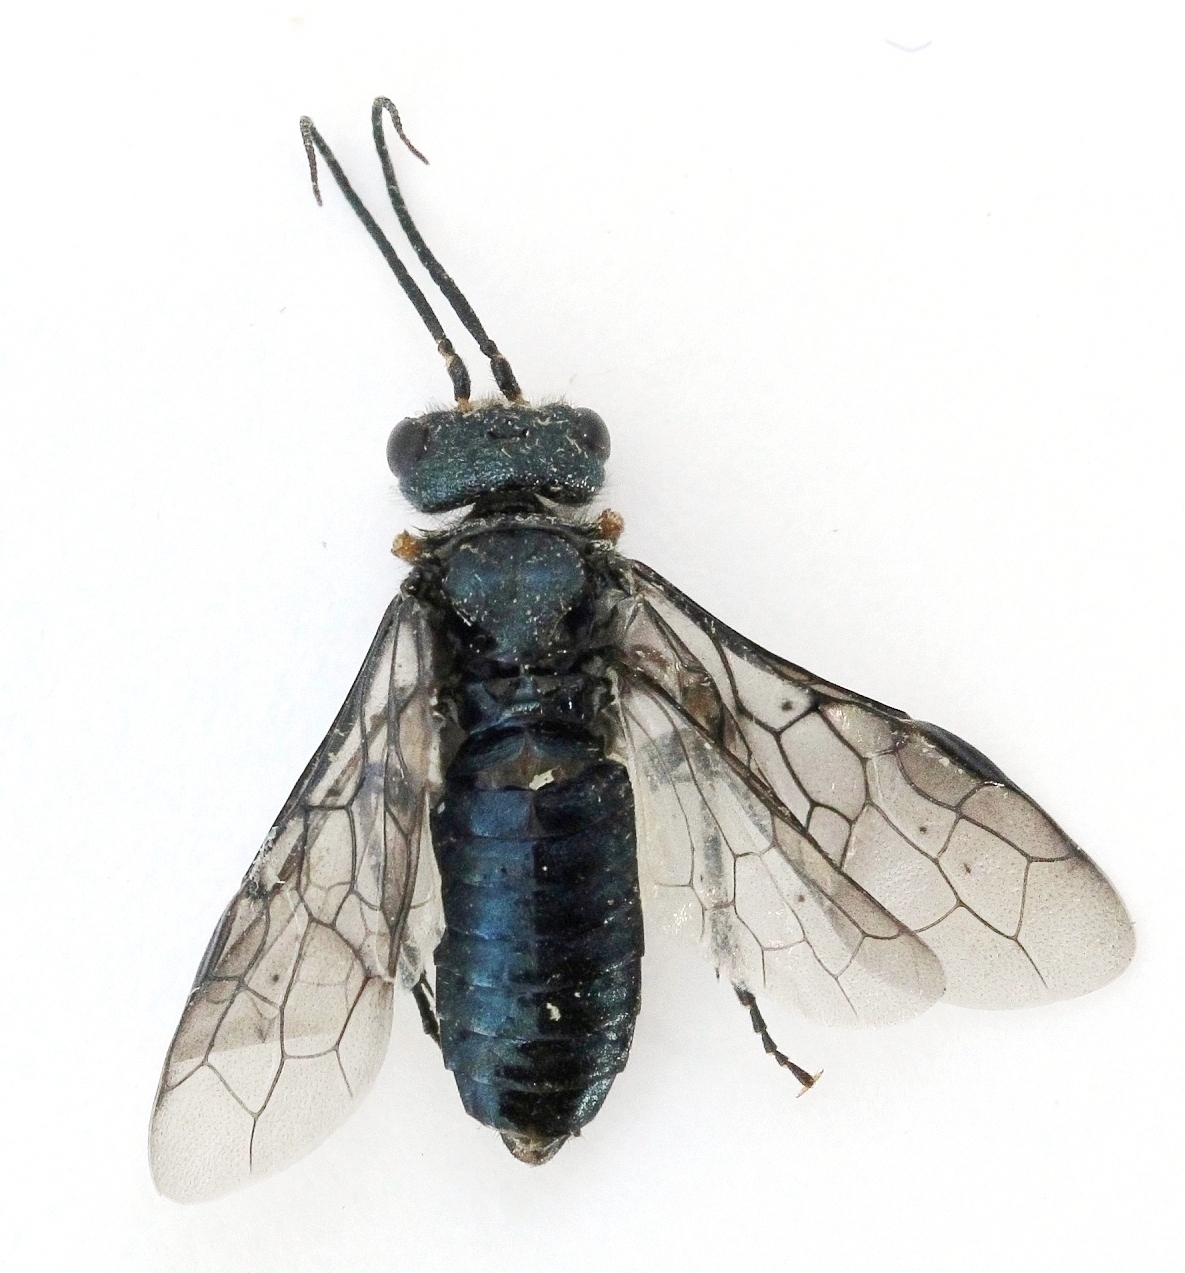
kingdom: Animalia
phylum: Arthropoda
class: Insecta
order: Hymenoptera
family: Pamphiliidae
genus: Acantholyda
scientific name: Acantholyda erythrocephala
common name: Pine false webworm
